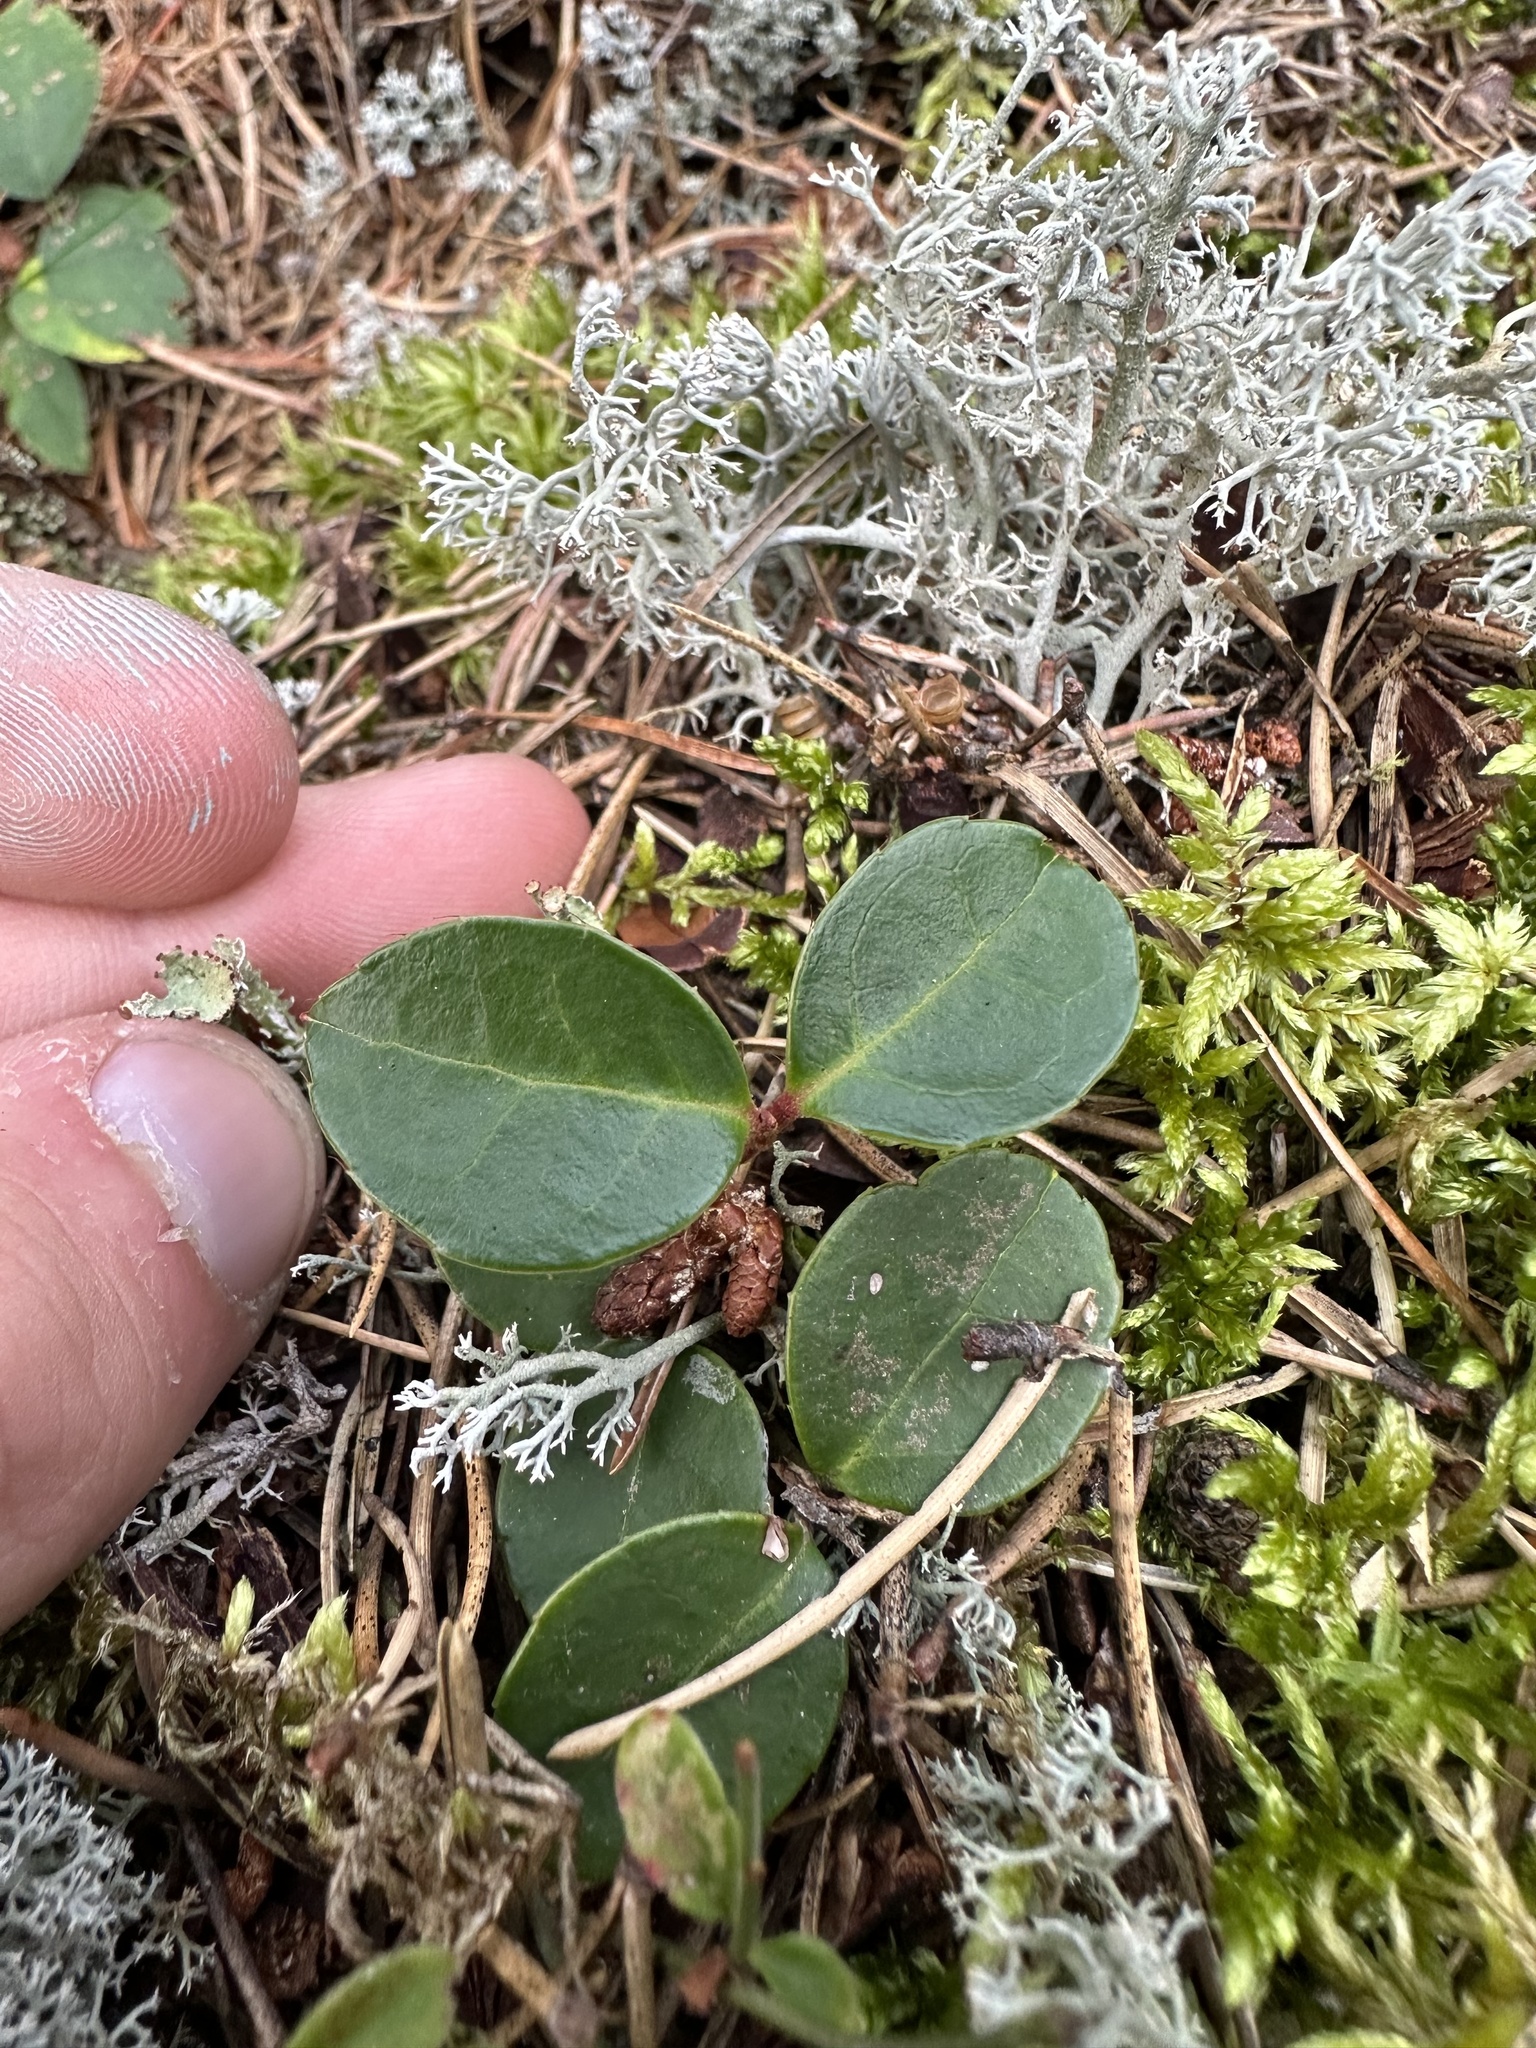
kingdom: Plantae
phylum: Tracheophyta
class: Magnoliopsida
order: Ericales
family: Ericaceae
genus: Gaultheria
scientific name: Gaultheria procumbens
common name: Checkerberry
